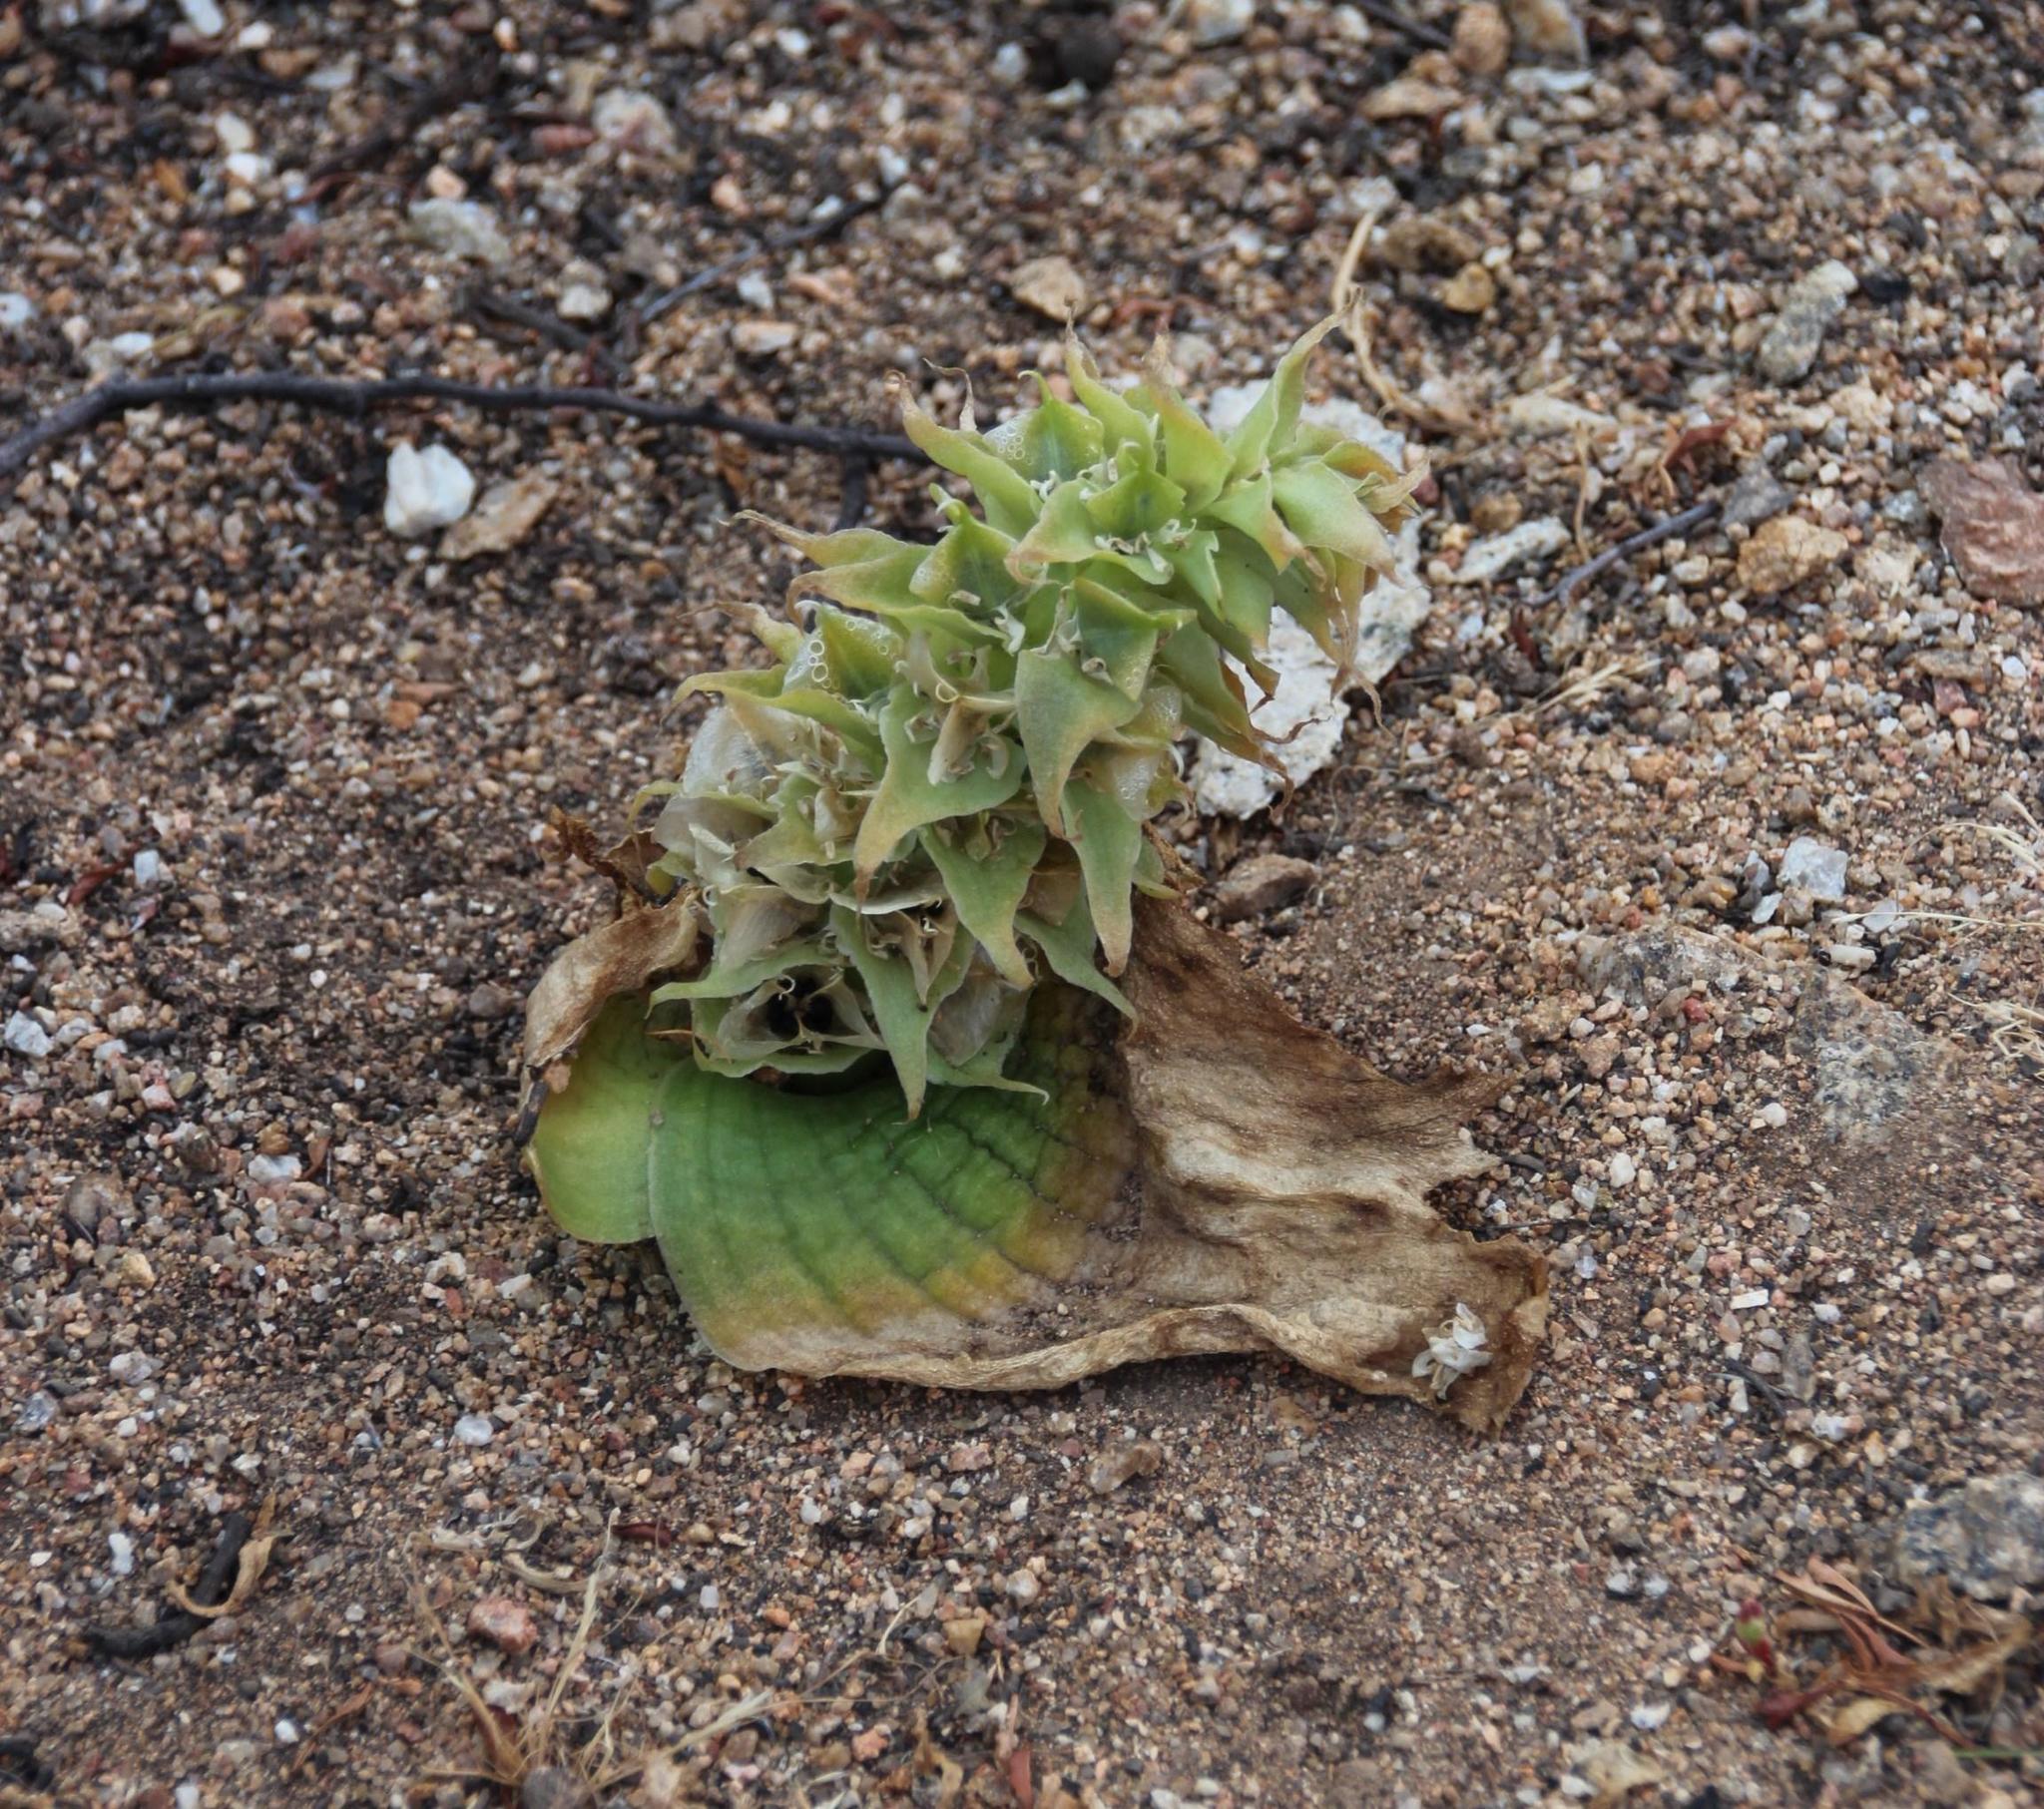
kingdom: Plantae
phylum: Tracheophyta
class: Liliopsida
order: Asparagales
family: Asparagaceae
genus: Massonia
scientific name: Massonia bifolia
